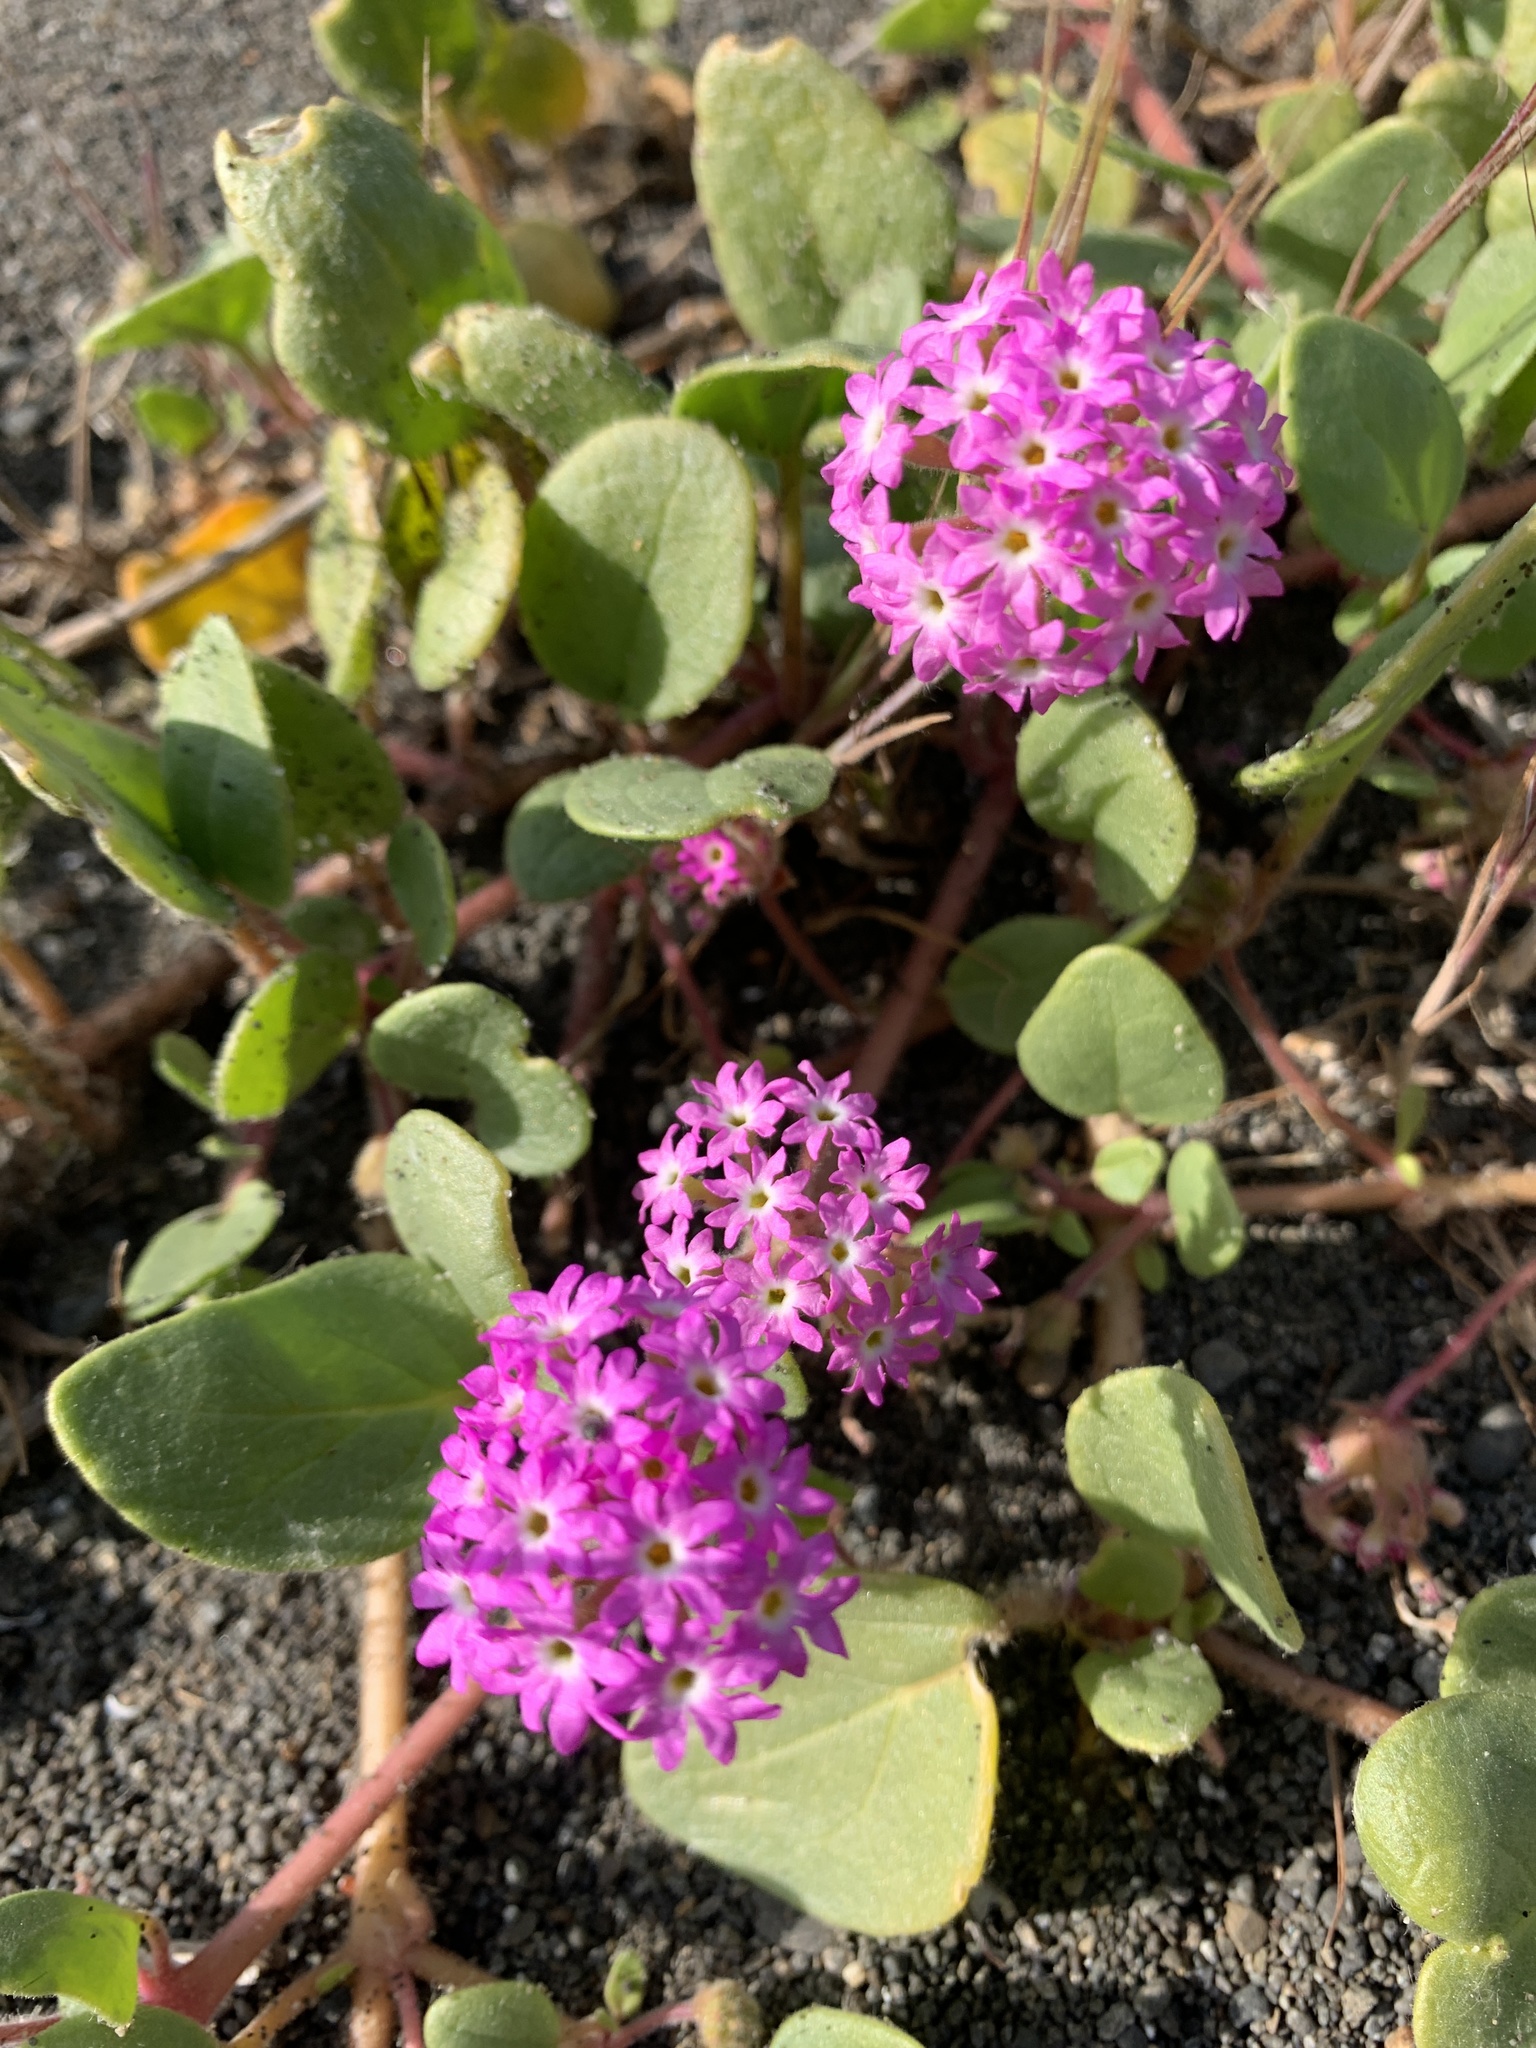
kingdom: Plantae
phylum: Tracheophyta
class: Magnoliopsida
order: Caryophyllales
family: Nyctaginaceae
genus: Abronia
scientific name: Abronia umbellata
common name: Sand-verbena
